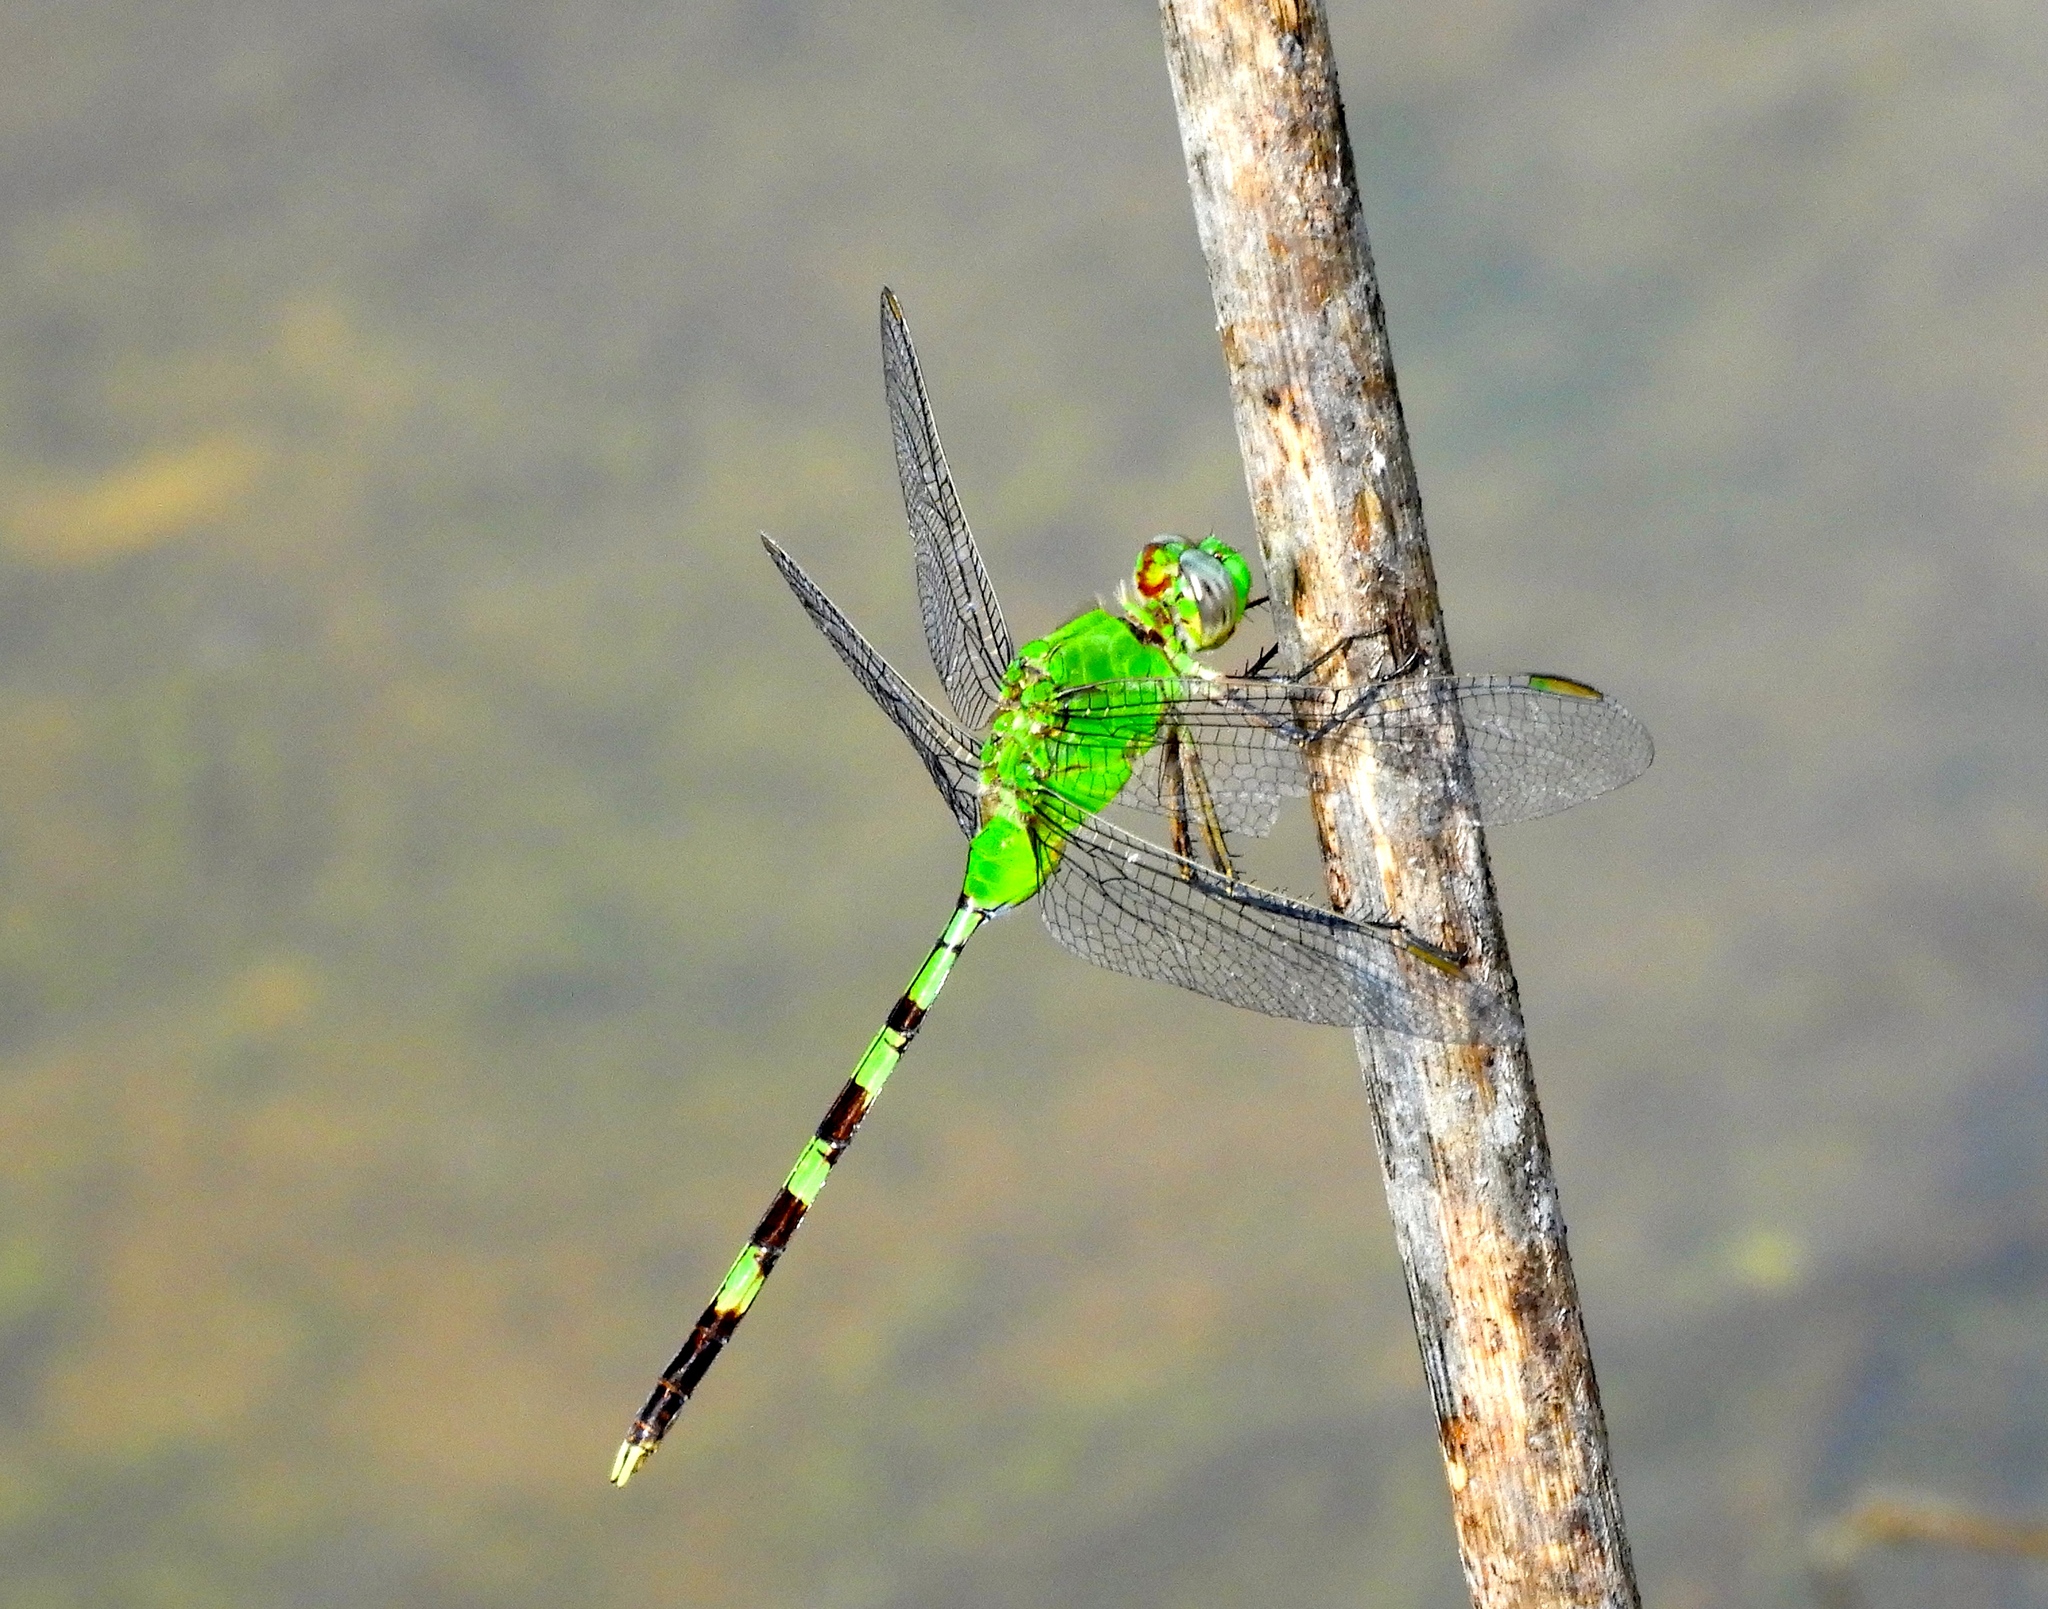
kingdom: Animalia
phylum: Arthropoda
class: Insecta
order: Odonata
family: Libellulidae
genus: Erythemis
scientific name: Erythemis vesiculosa
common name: Great pondhawk
